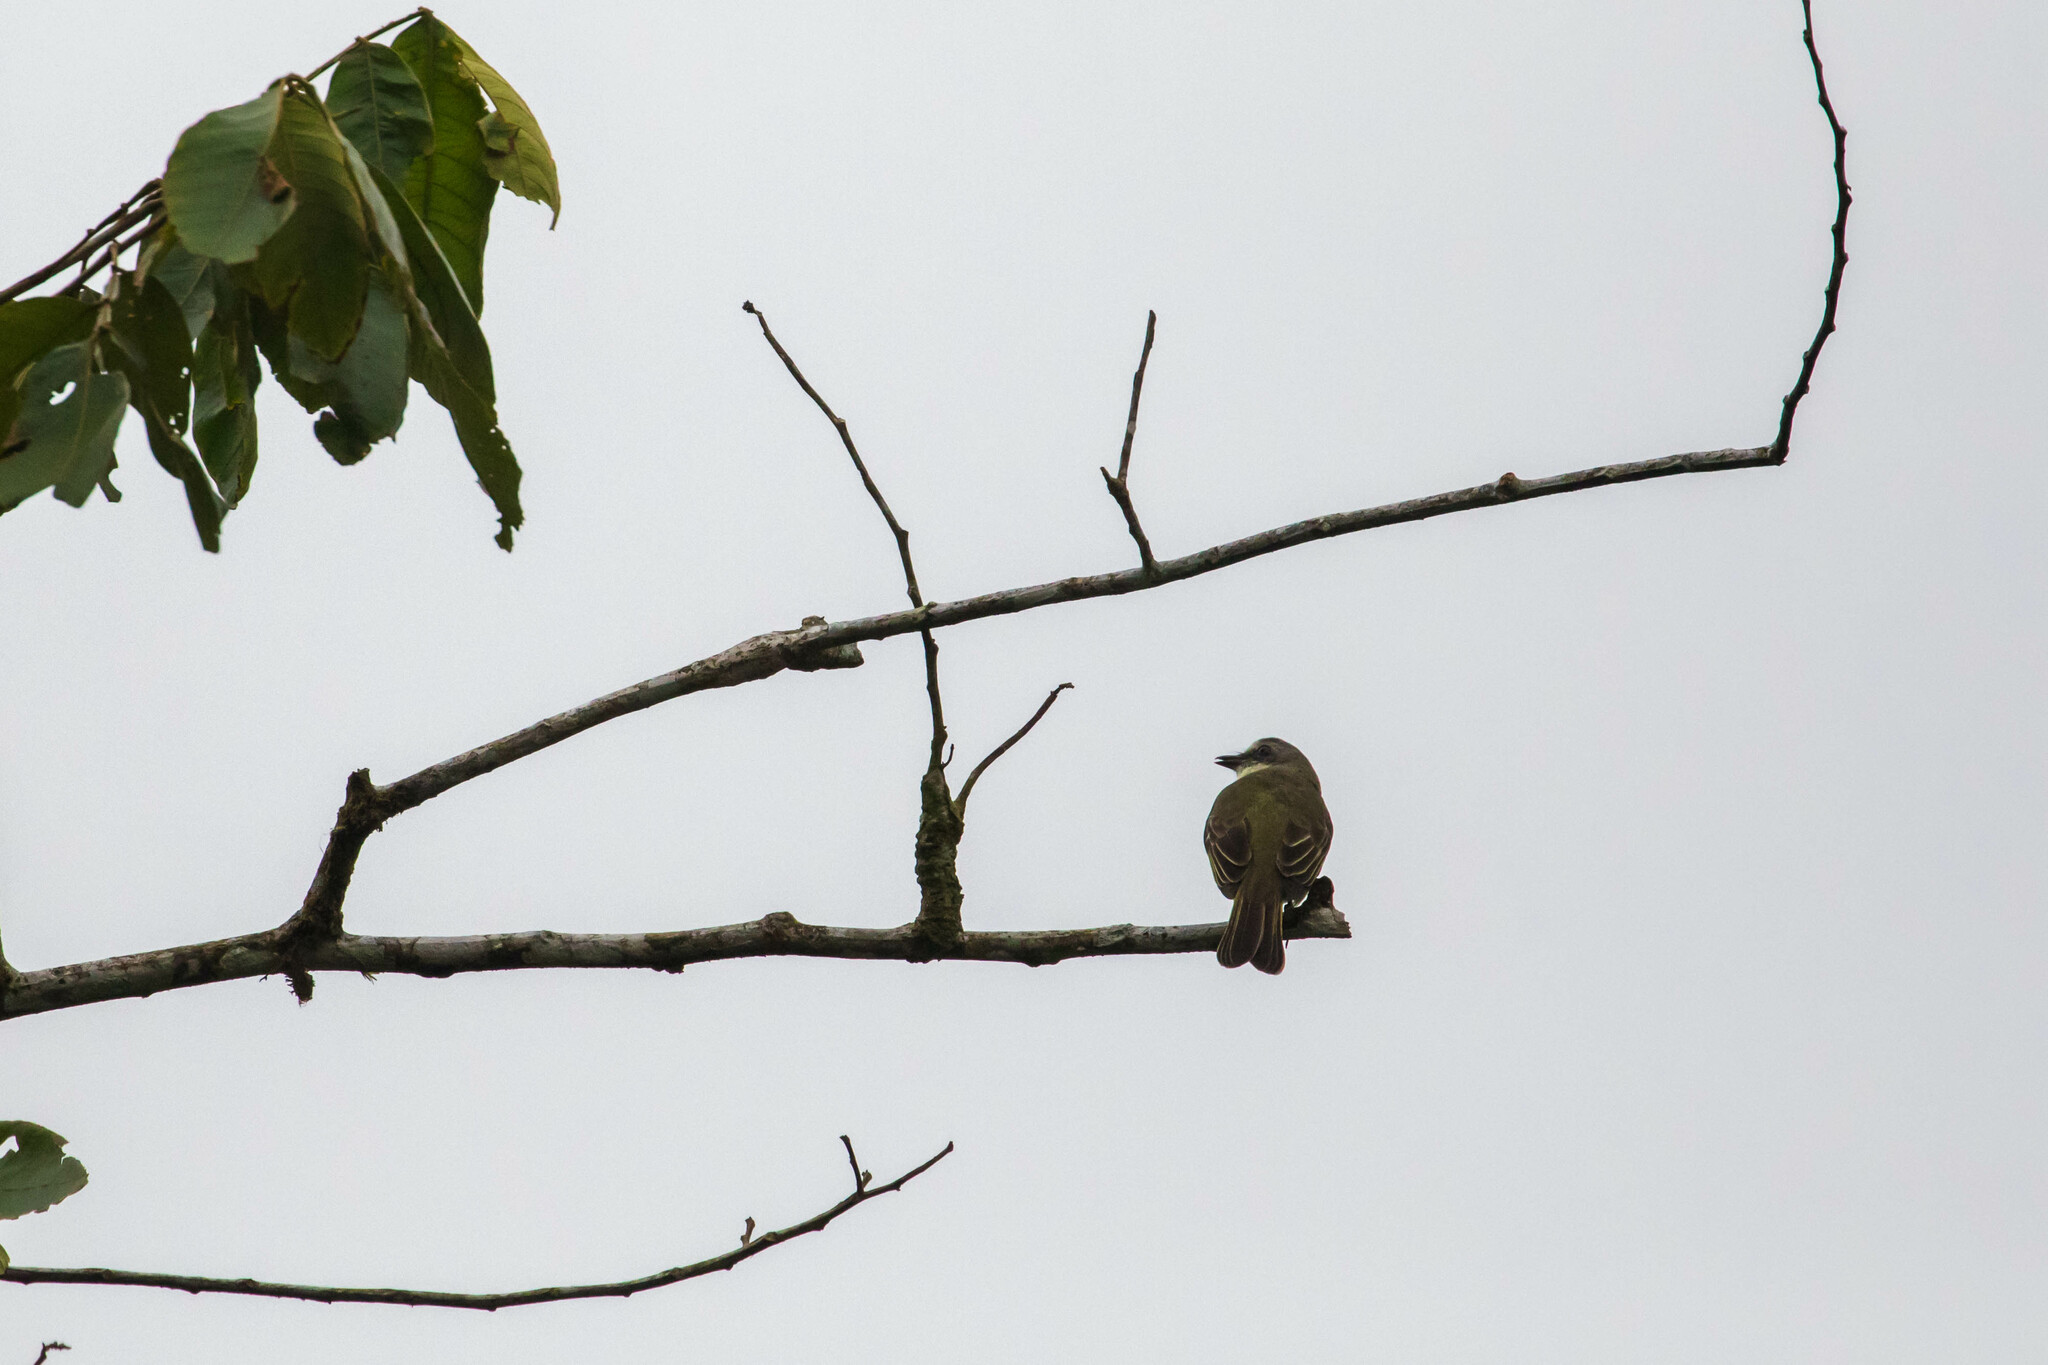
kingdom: Animalia
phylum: Chordata
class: Aves
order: Passeriformes
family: Tyrannidae
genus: Myiozetetes
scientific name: Myiozetetes granadensis
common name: Gray-capped flycatcher
